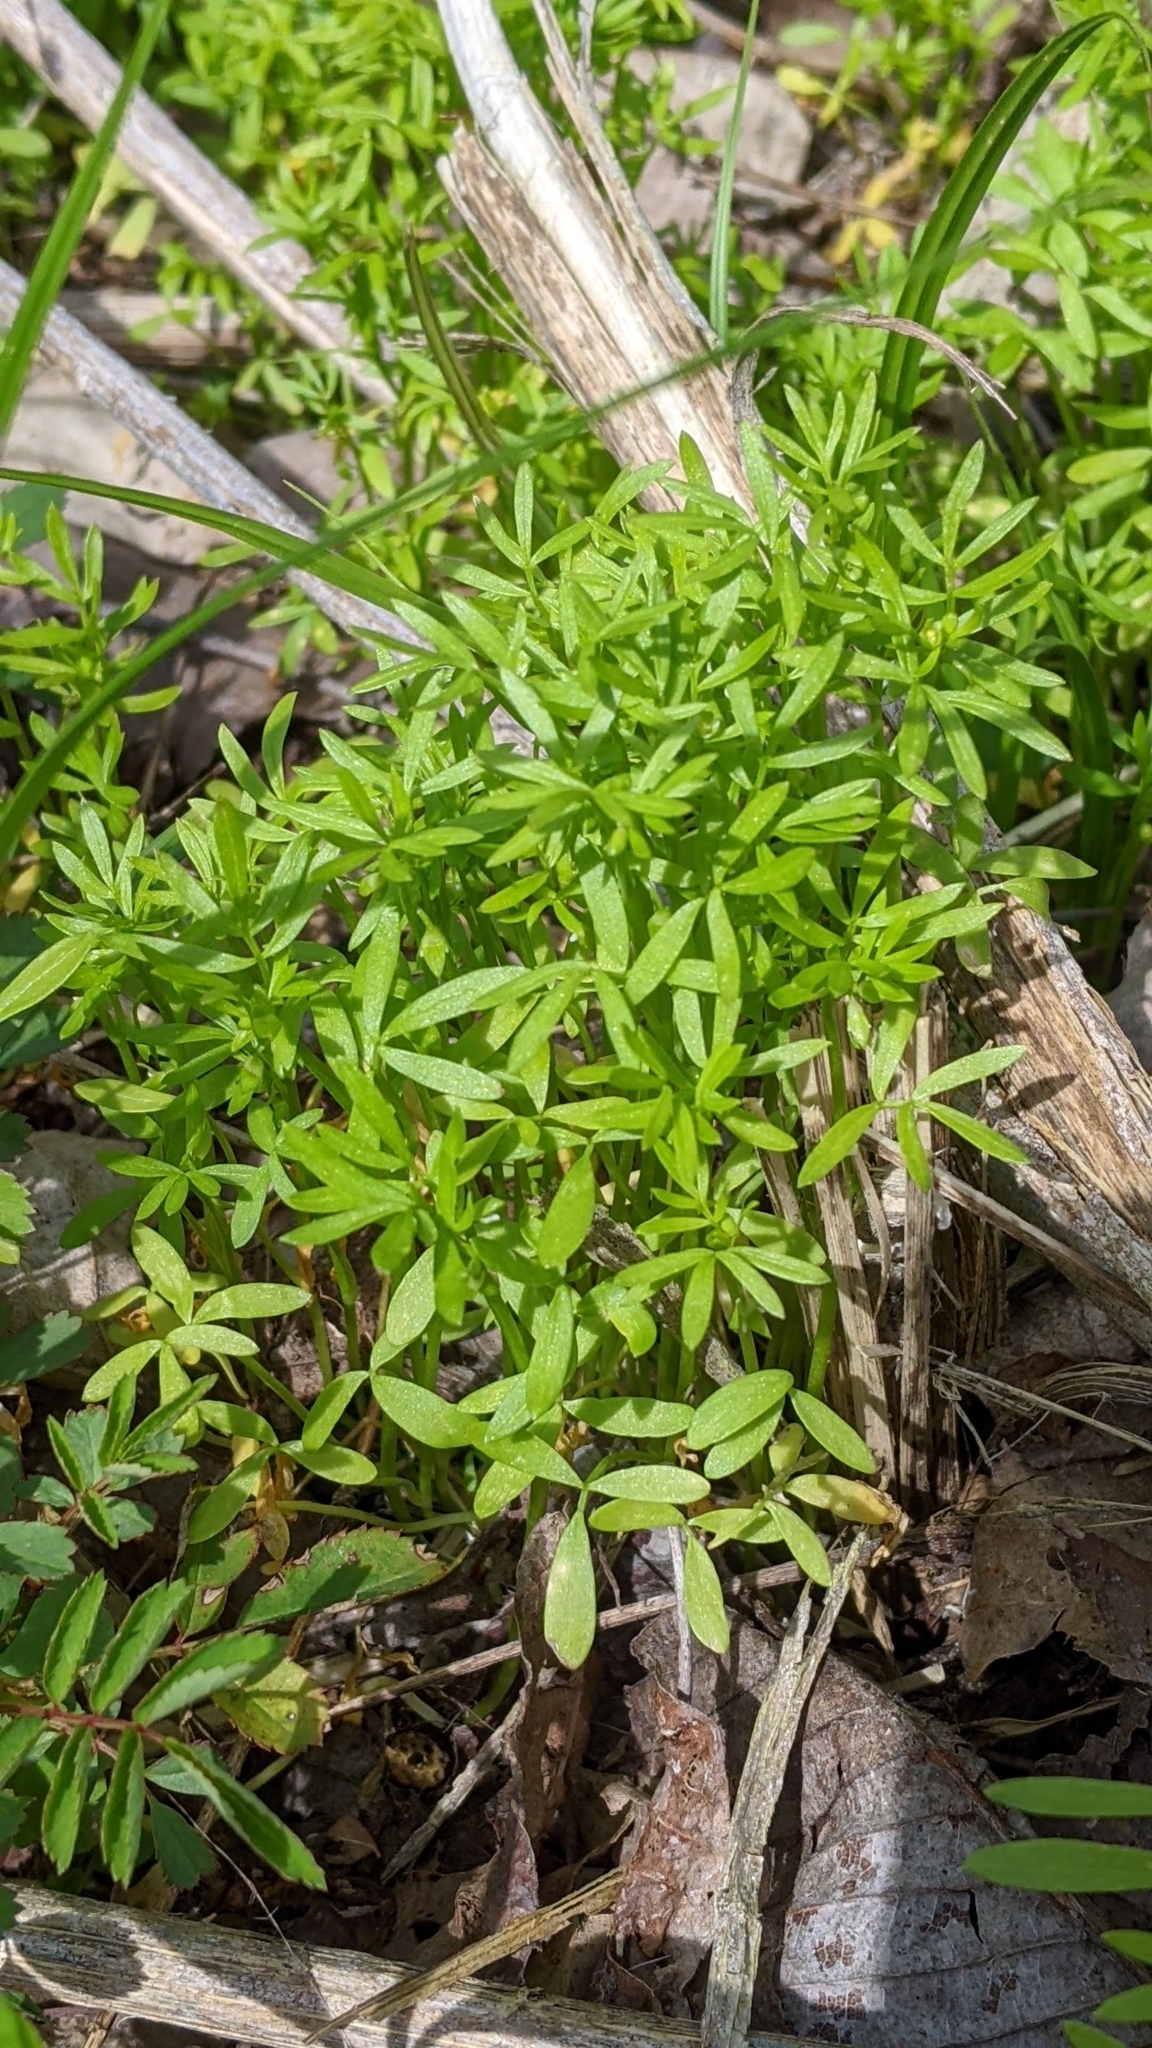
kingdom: Plantae
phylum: Tracheophyta
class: Magnoliopsida
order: Brassicales
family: Limnanthaceae
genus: Floerkea
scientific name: Floerkea proserpinacoides
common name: False mermaid
